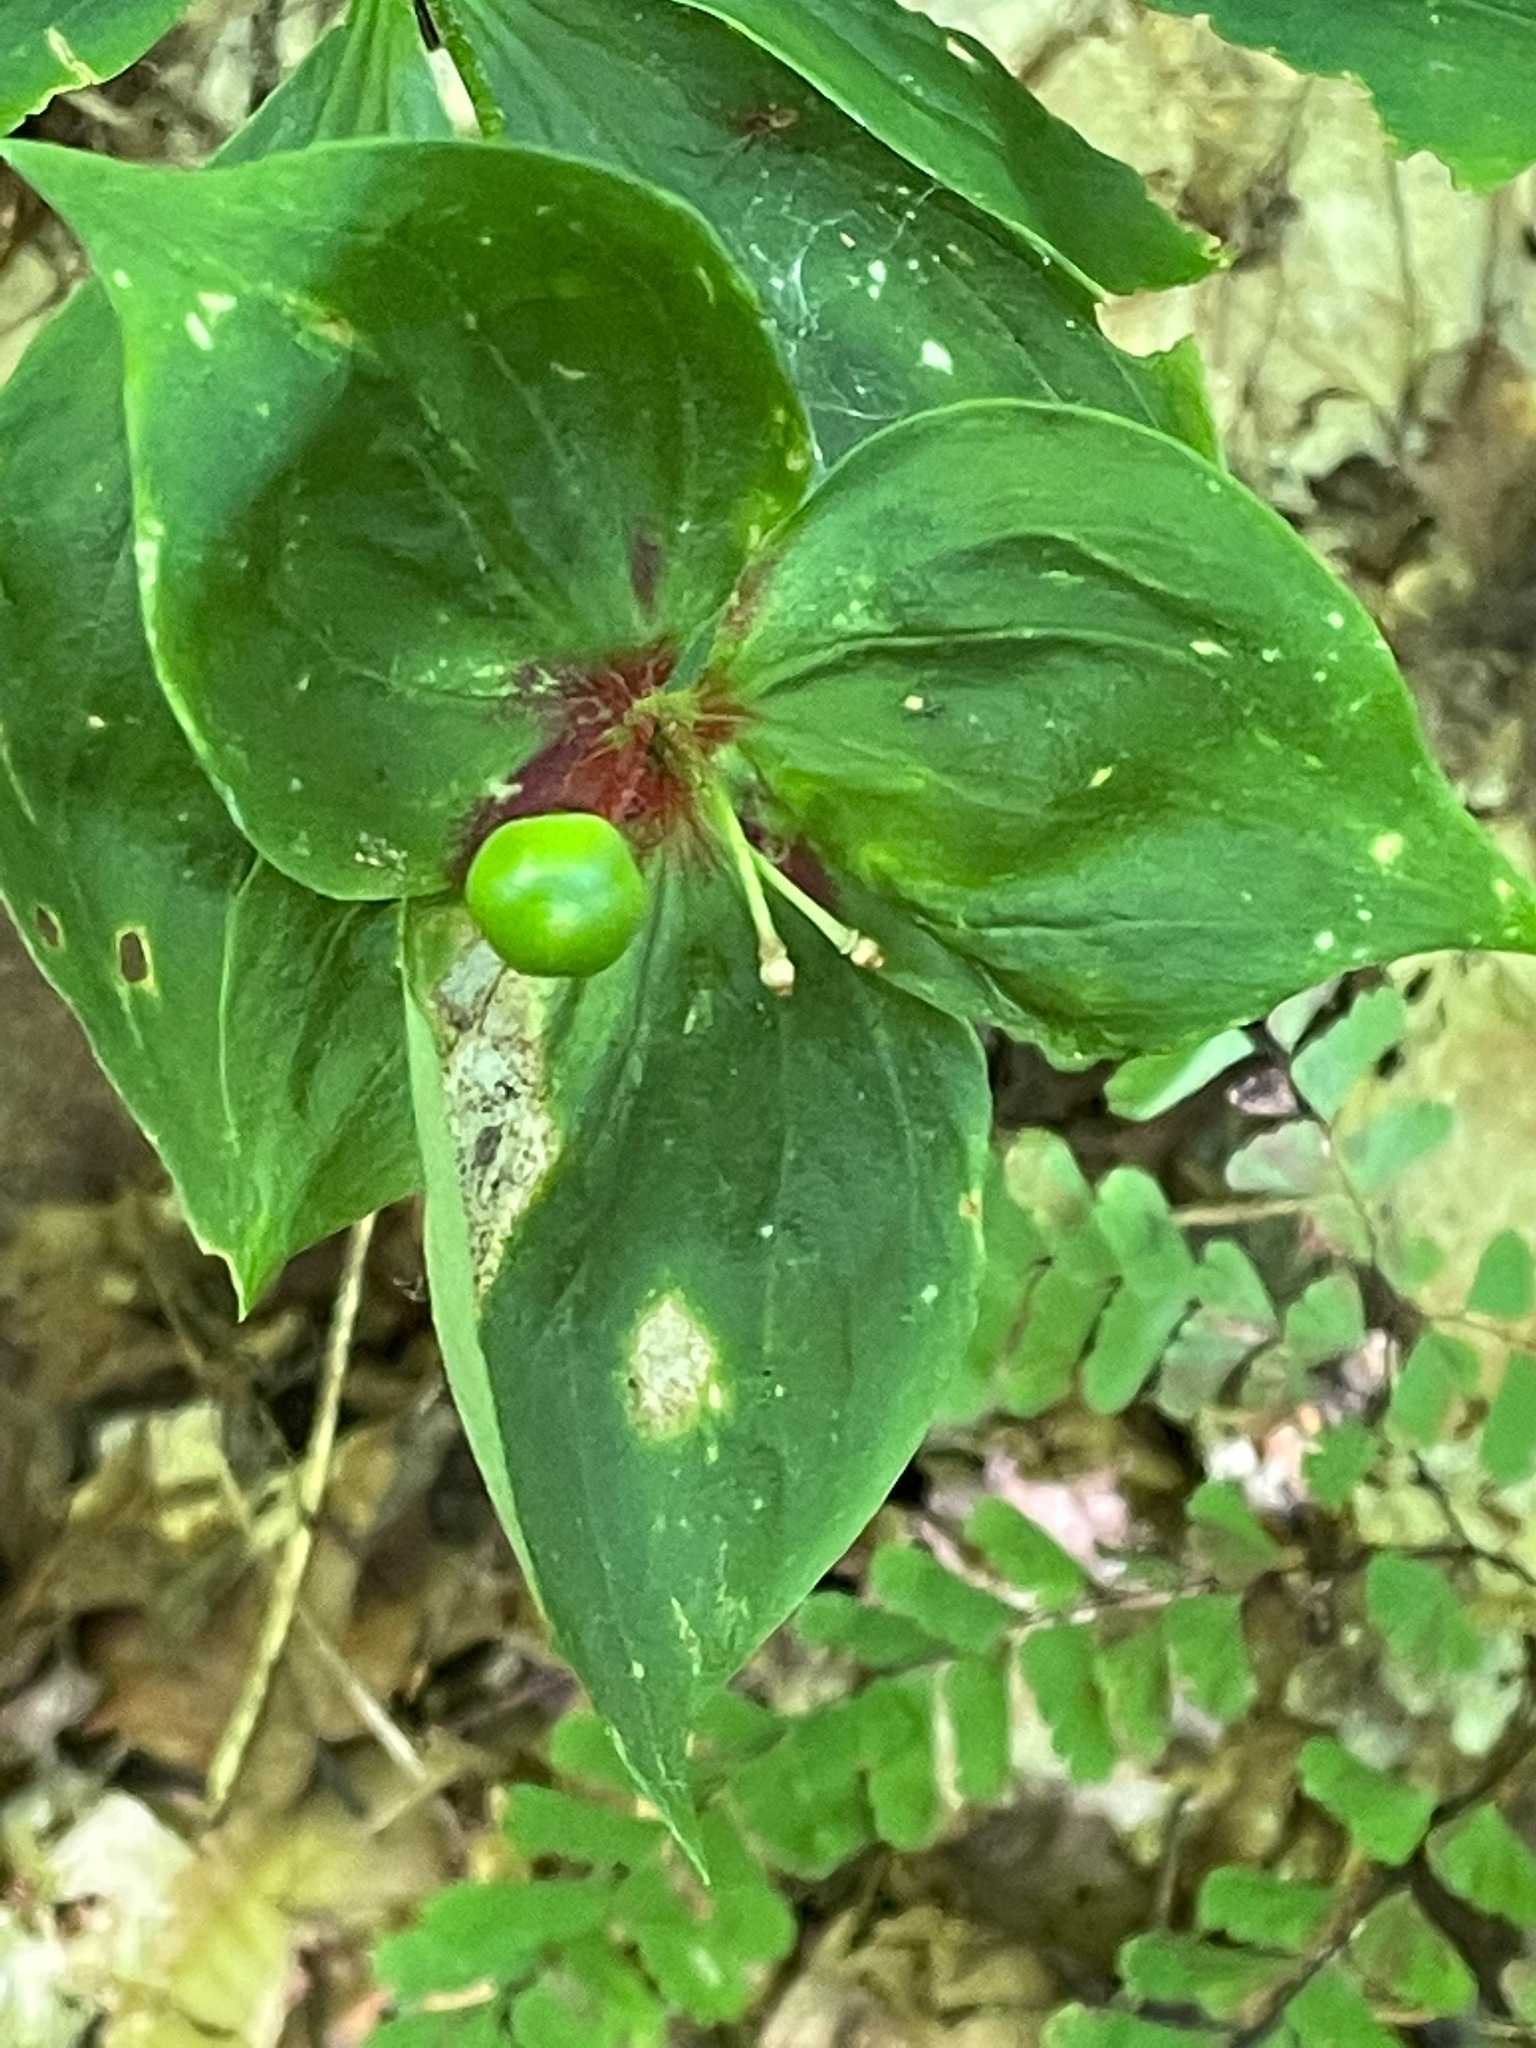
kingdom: Plantae
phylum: Tracheophyta
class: Liliopsida
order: Liliales
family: Liliaceae
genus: Medeola
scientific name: Medeola virginiana
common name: Indian cucumber-root
